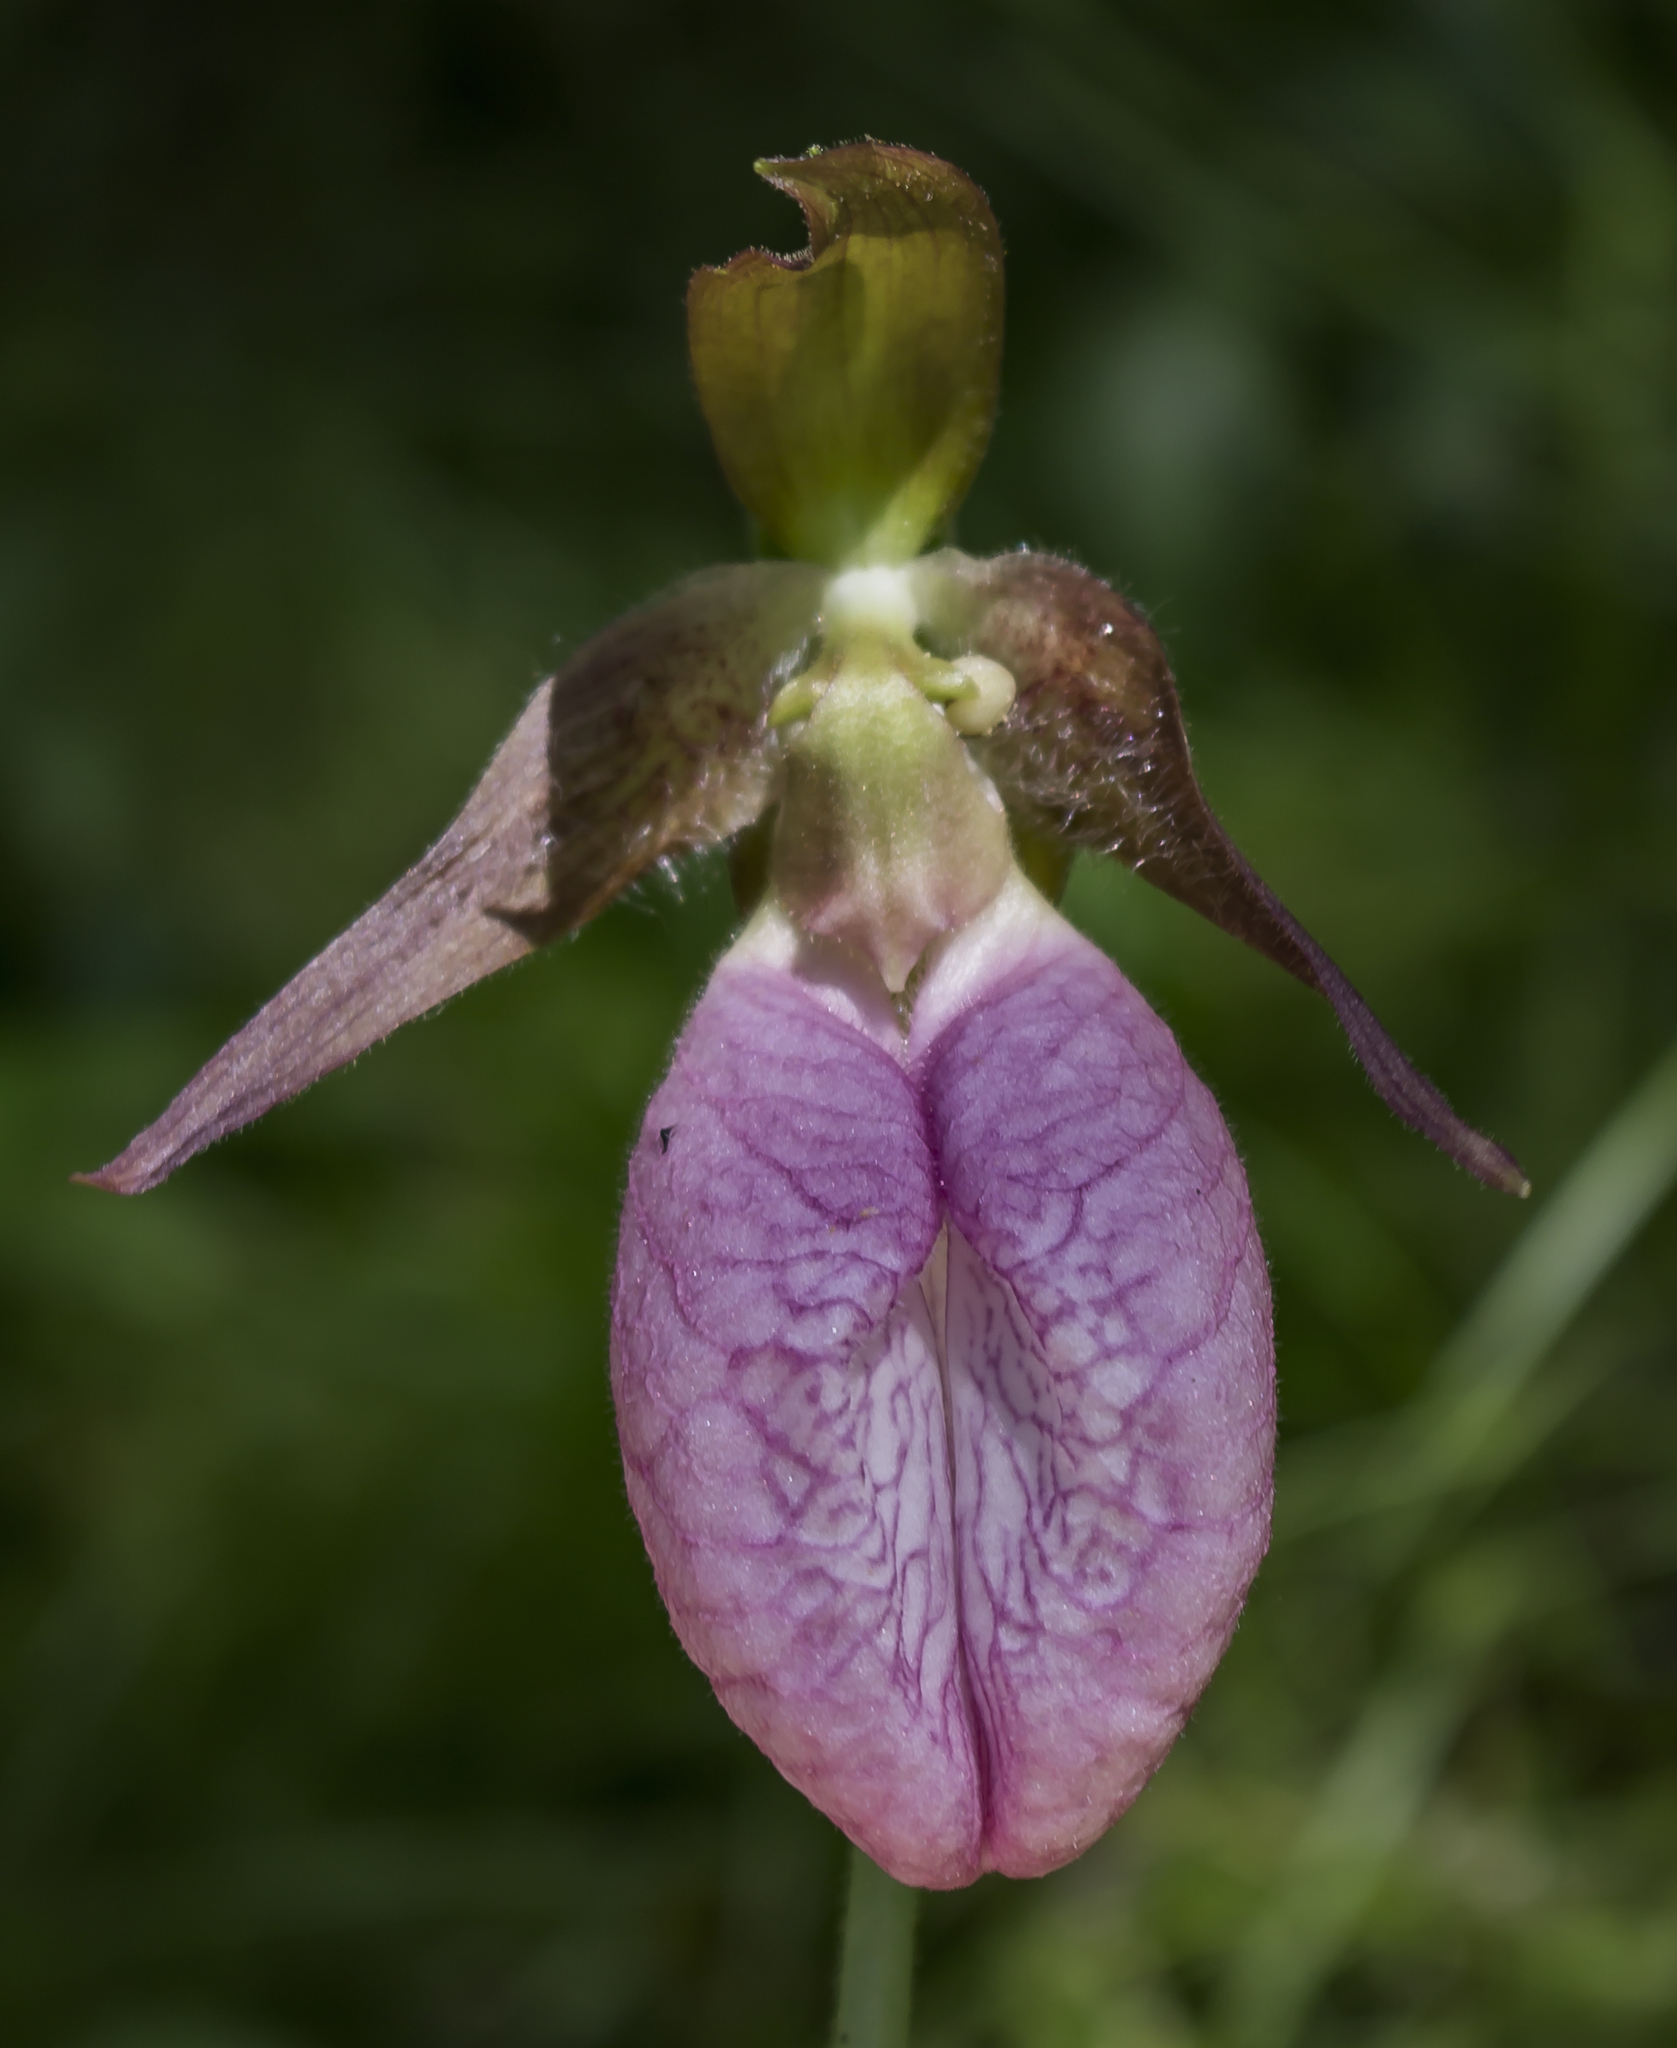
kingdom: Plantae
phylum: Tracheophyta
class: Liliopsida
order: Asparagales
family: Orchidaceae
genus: Cypripedium
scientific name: Cypripedium acaule
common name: Pink lady's-slipper
